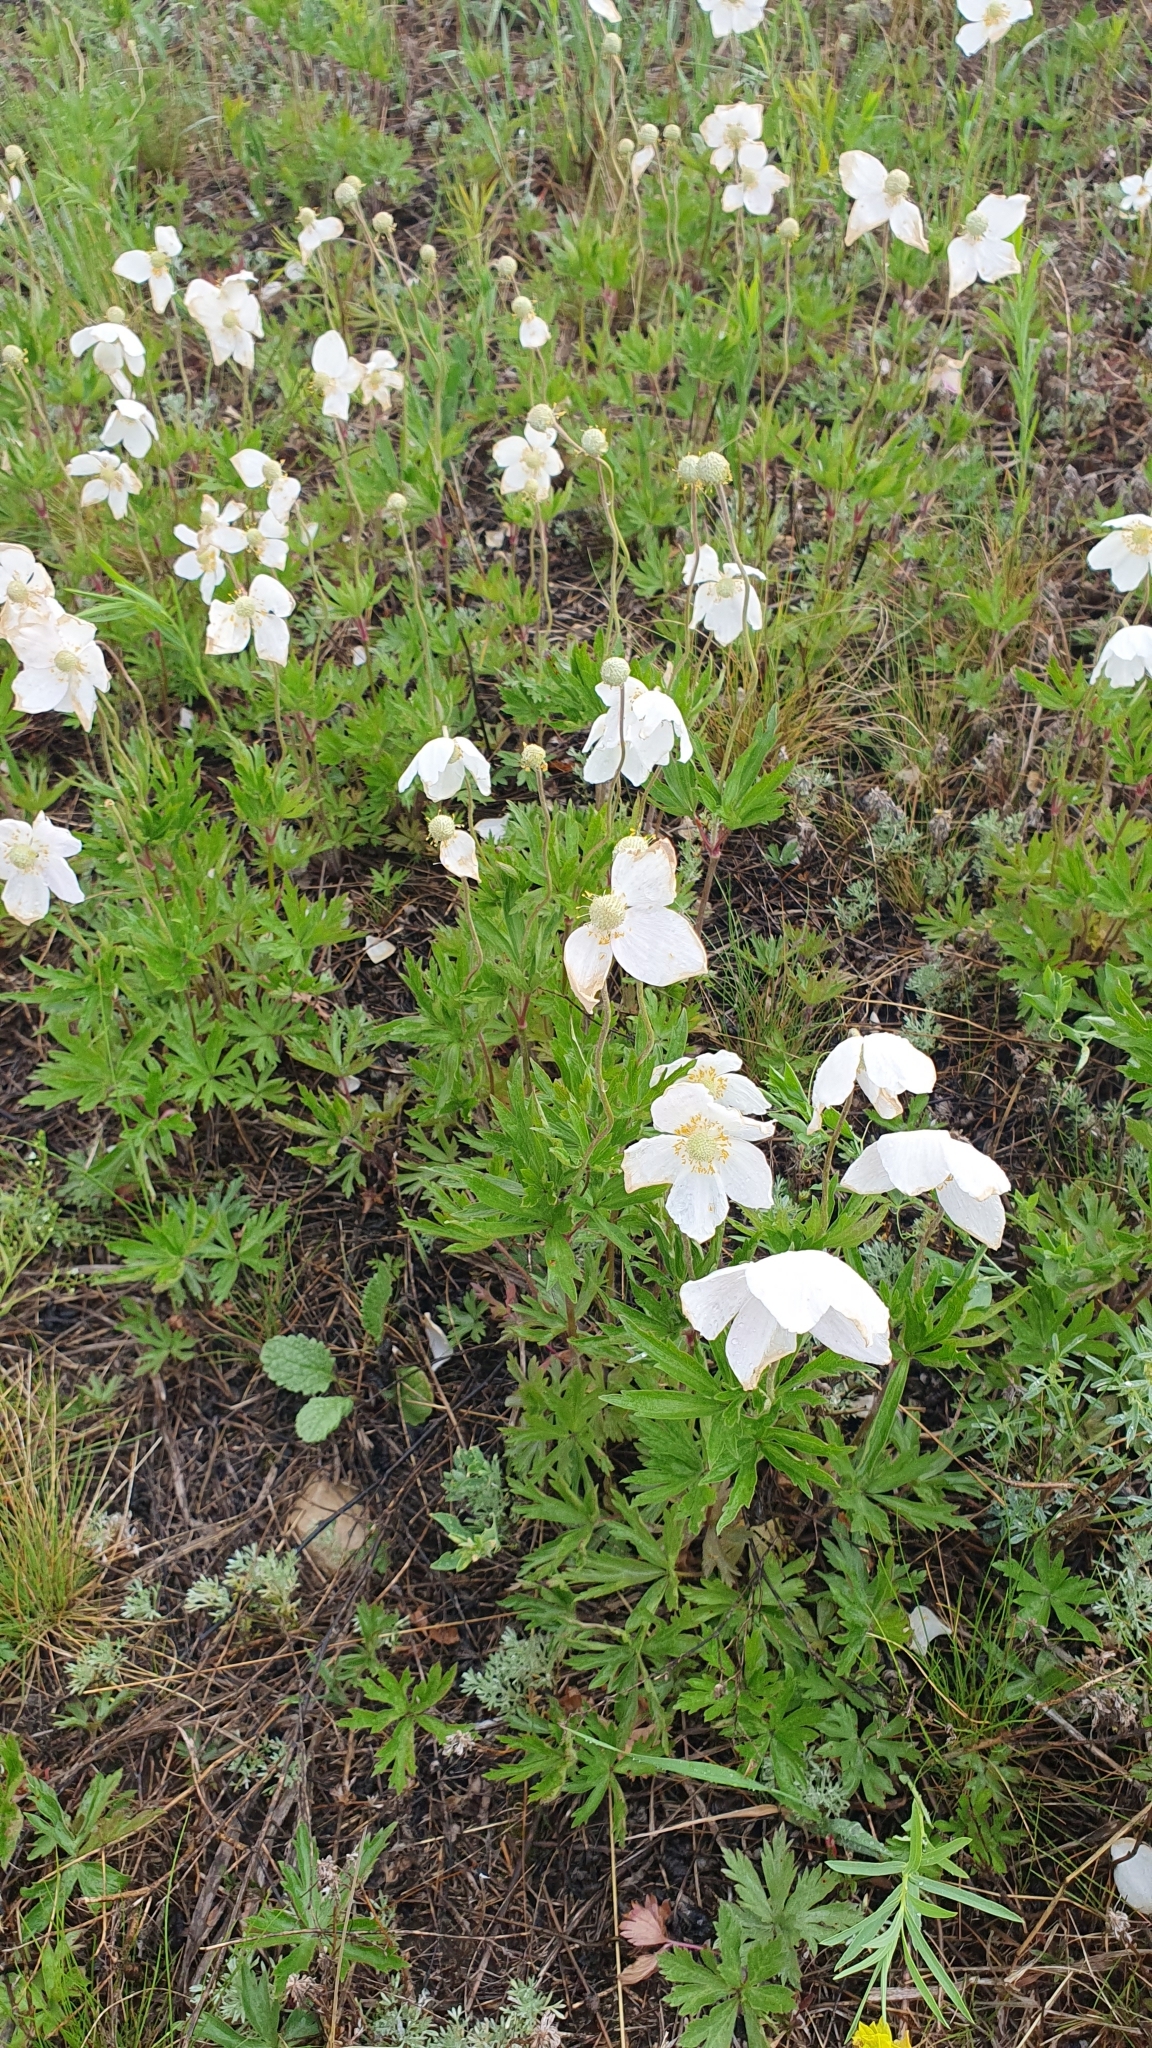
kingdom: Plantae
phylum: Tracheophyta
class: Magnoliopsida
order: Ranunculales
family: Ranunculaceae
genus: Anemone
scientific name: Anemone sylvestris
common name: Snowdrop anemone
